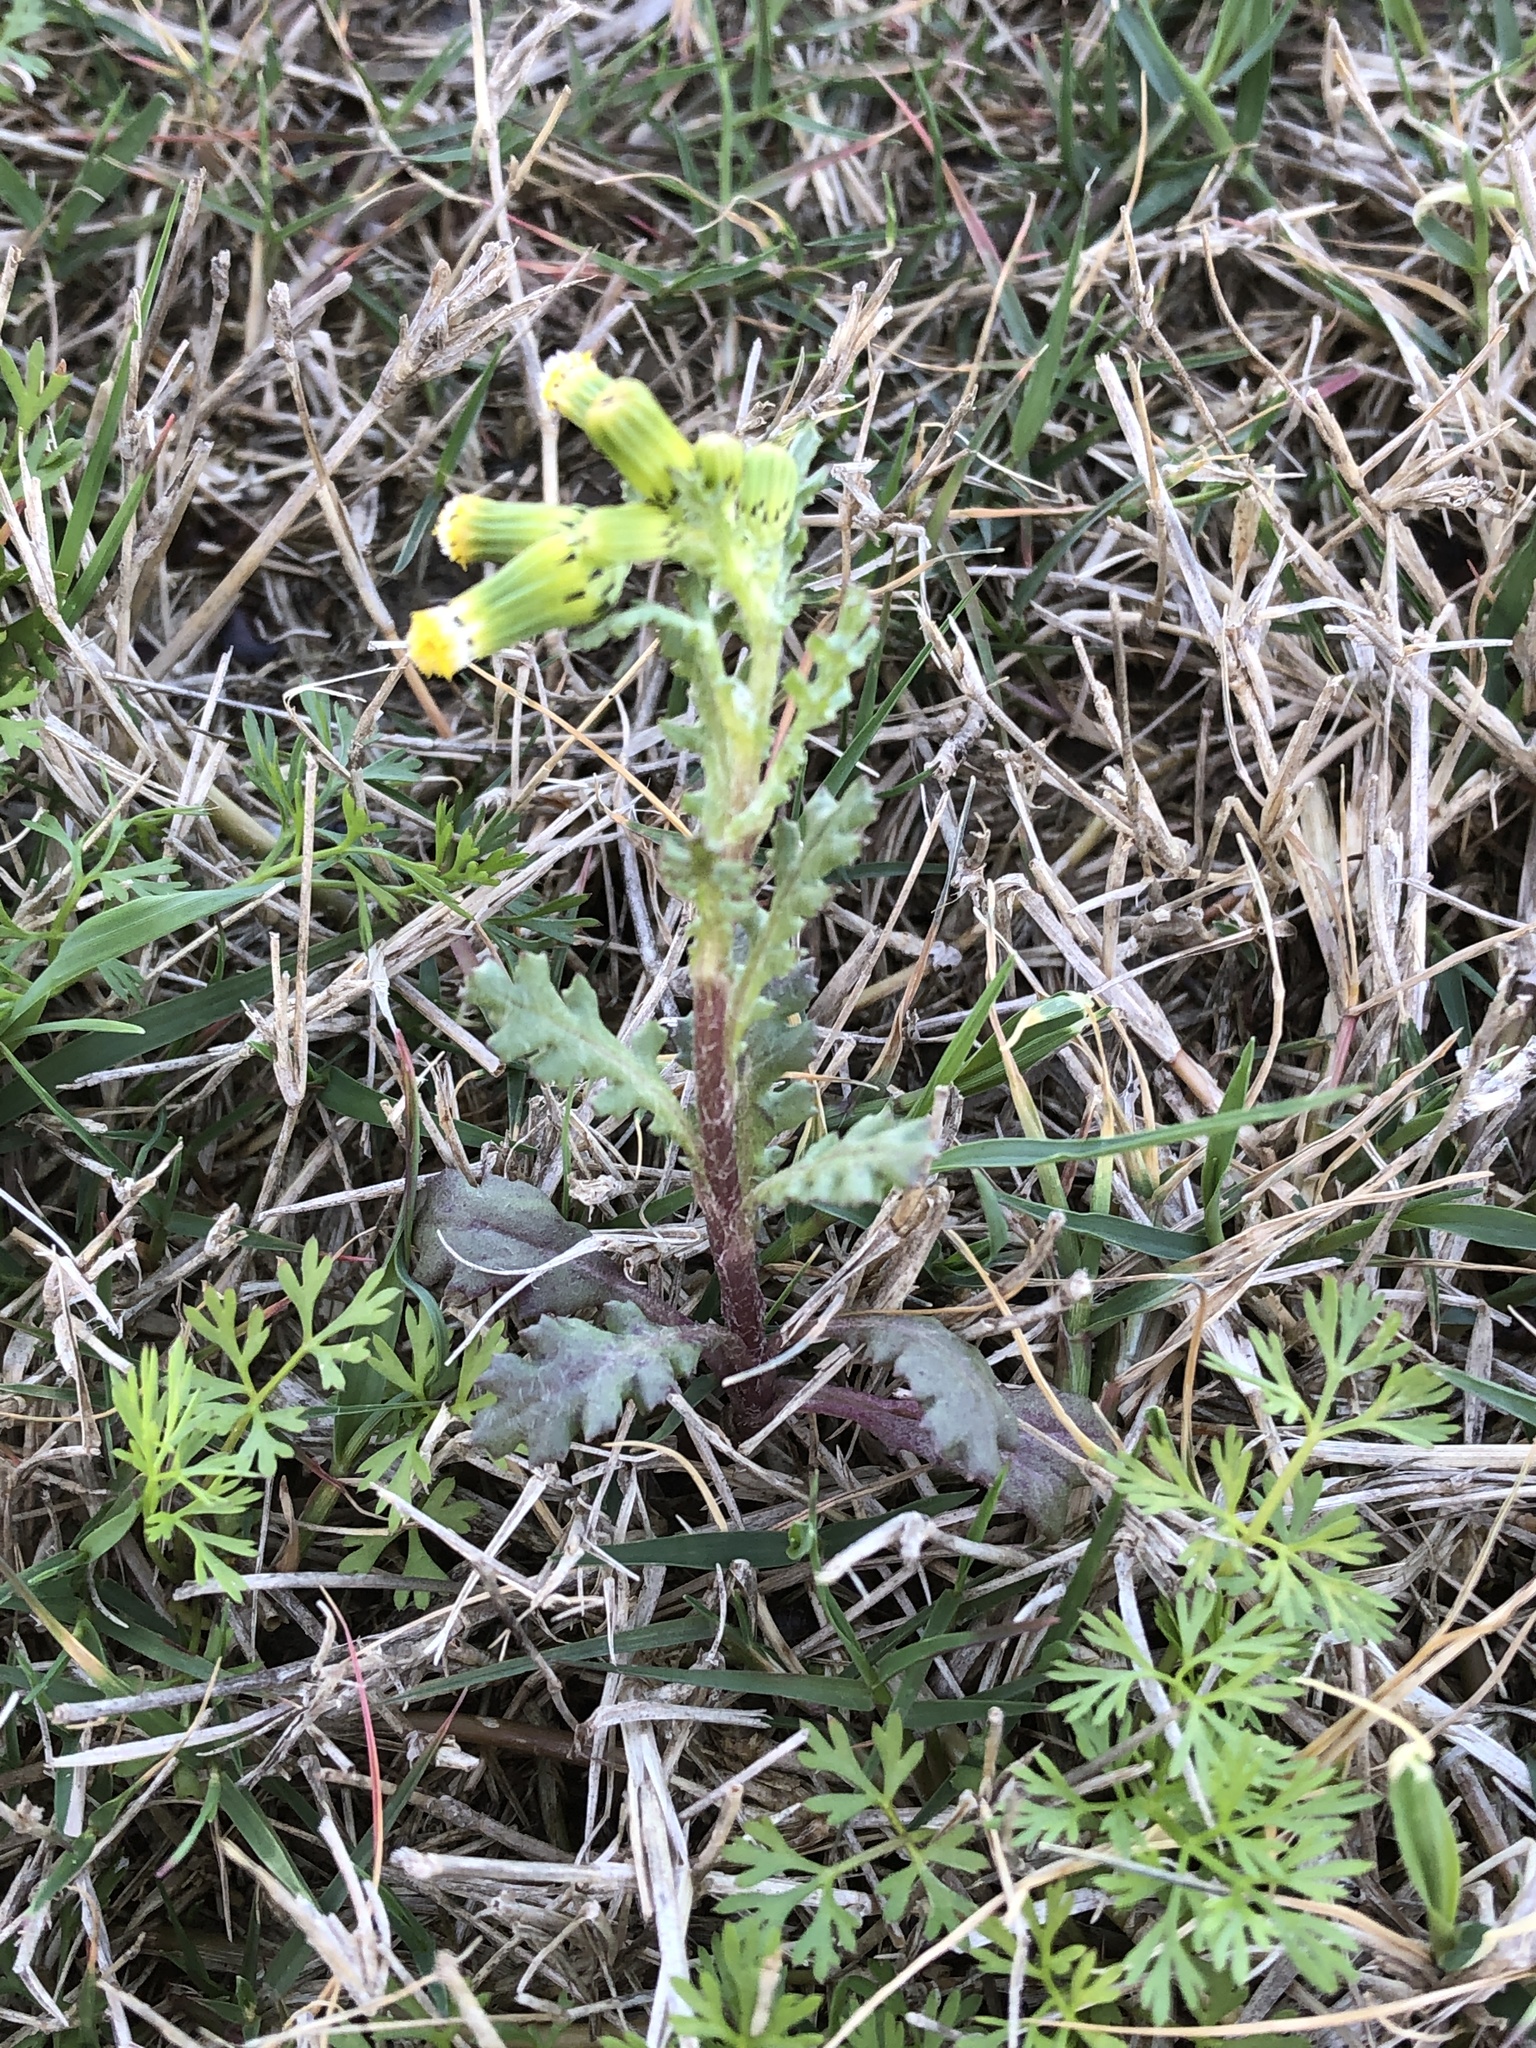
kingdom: Plantae
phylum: Tracheophyta
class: Magnoliopsida
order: Asterales
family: Asteraceae
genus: Senecio
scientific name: Senecio vulgaris
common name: Old-man-in-the-spring
